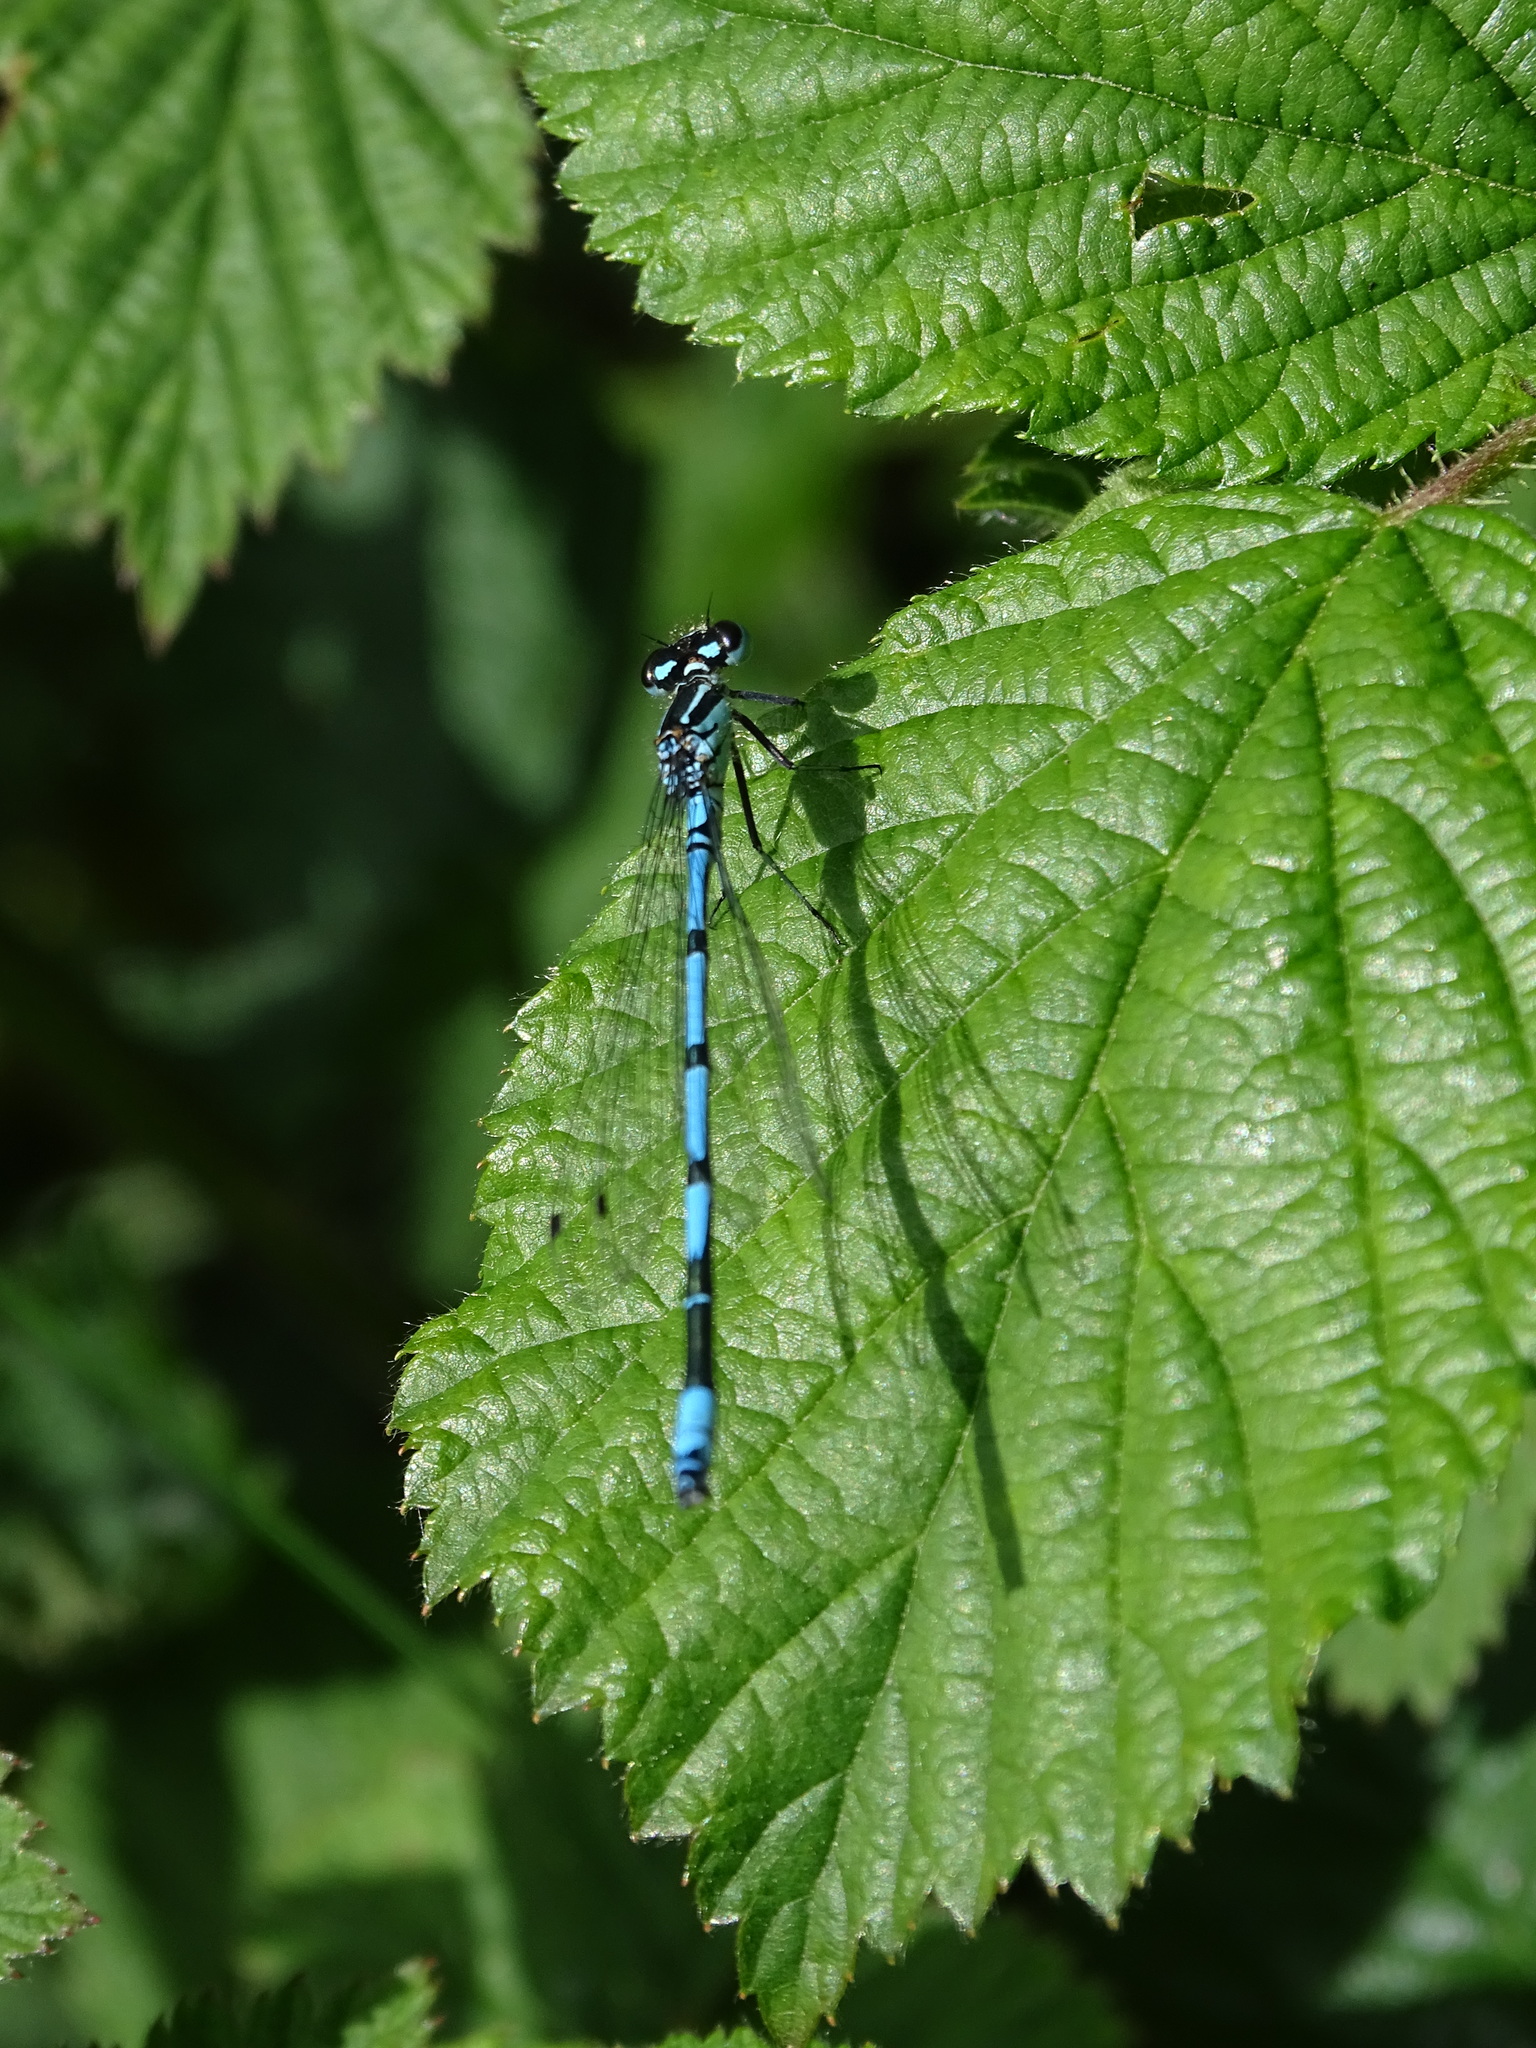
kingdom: Animalia
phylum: Arthropoda
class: Insecta
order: Odonata
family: Coenagrionidae
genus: Coenagrion
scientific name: Coenagrion puella
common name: Azure damselfly
